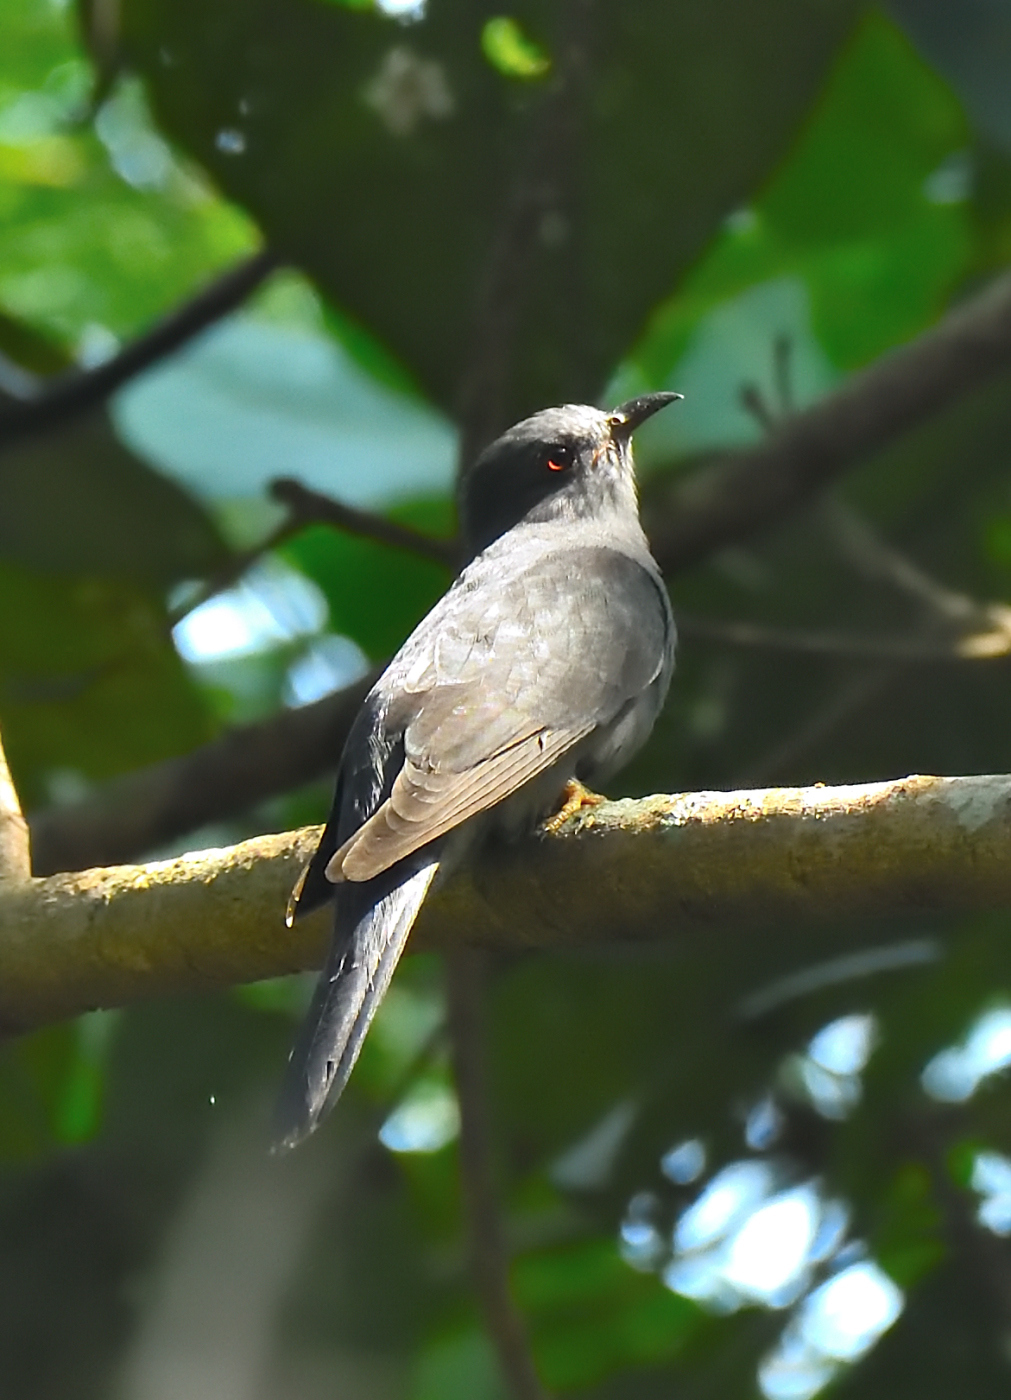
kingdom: Animalia
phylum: Chordata
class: Aves
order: Cuculiformes
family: Cuculidae
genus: Cacomantis
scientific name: Cacomantis passerinus
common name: Grey-bellied cuckoo
